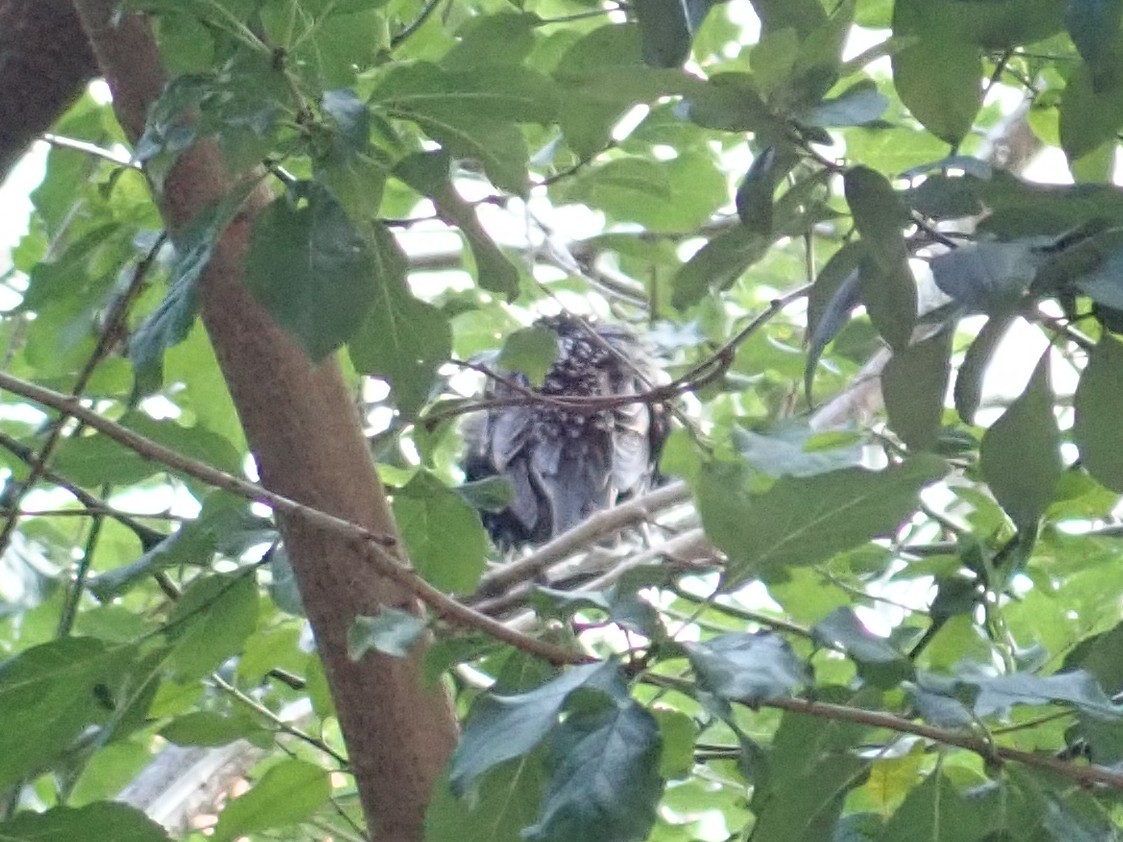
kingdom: Animalia
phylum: Chordata
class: Aves
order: Passeriformes
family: Sturnidae
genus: Sturnus
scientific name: Sturnus vulgaris
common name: Common starling
